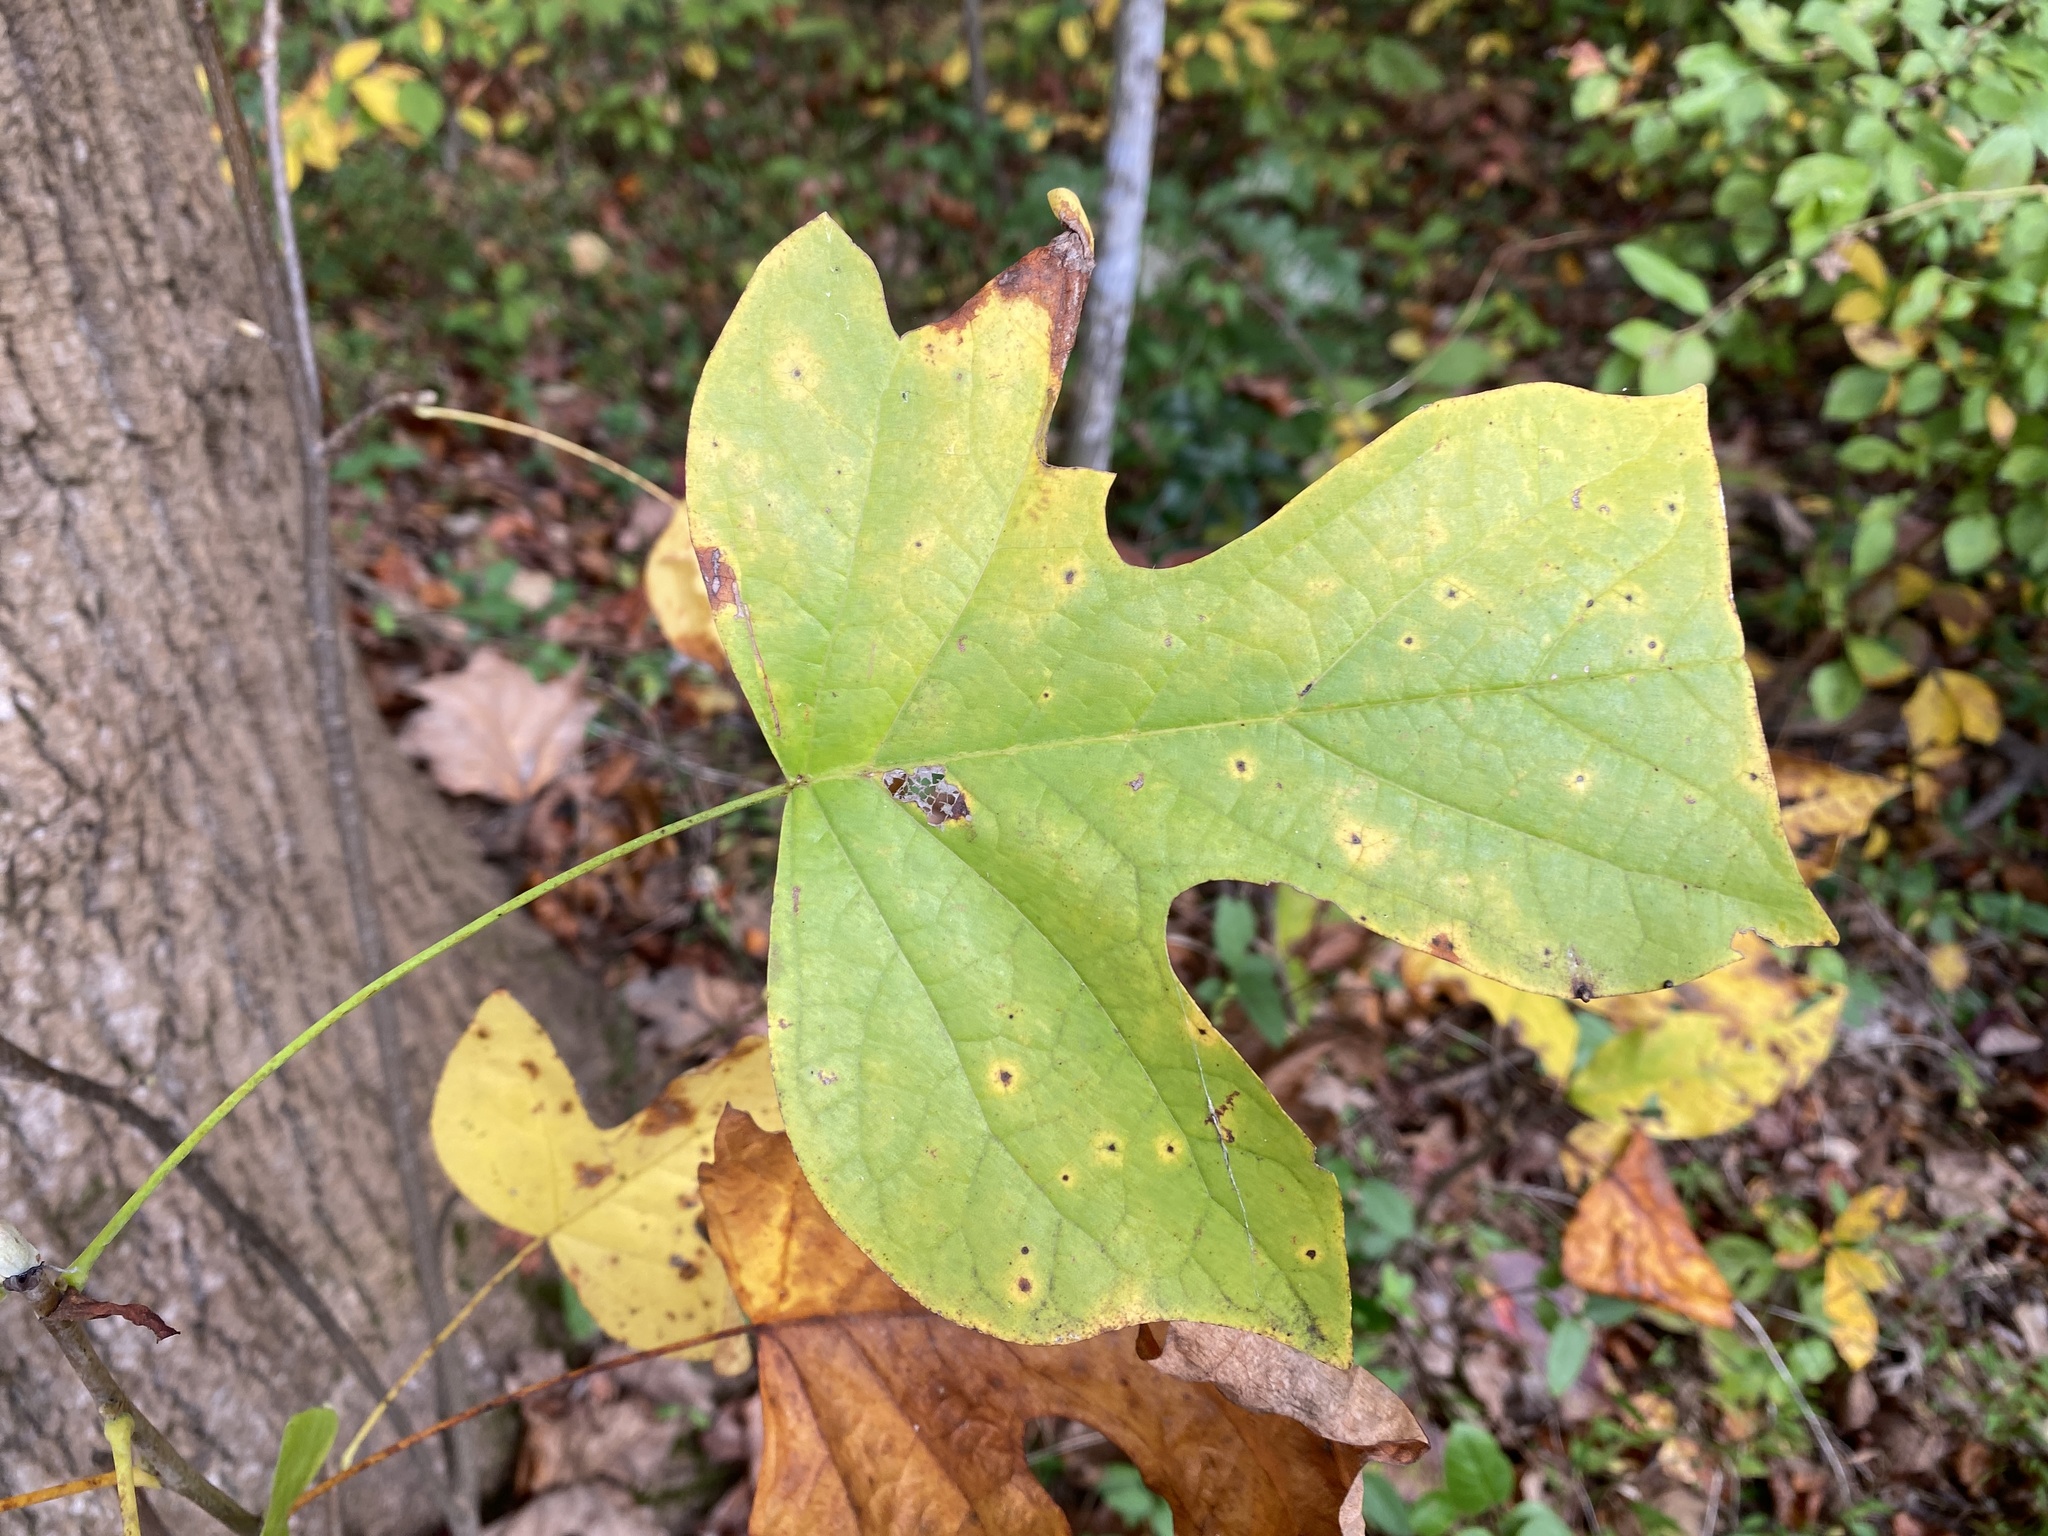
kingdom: Plantae
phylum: Tracheophyta
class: Magnoliopsida
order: Magnoliales
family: Magnoliaceae
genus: Liriodendron
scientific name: Liriodendron tulipifera
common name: Tulip tree
